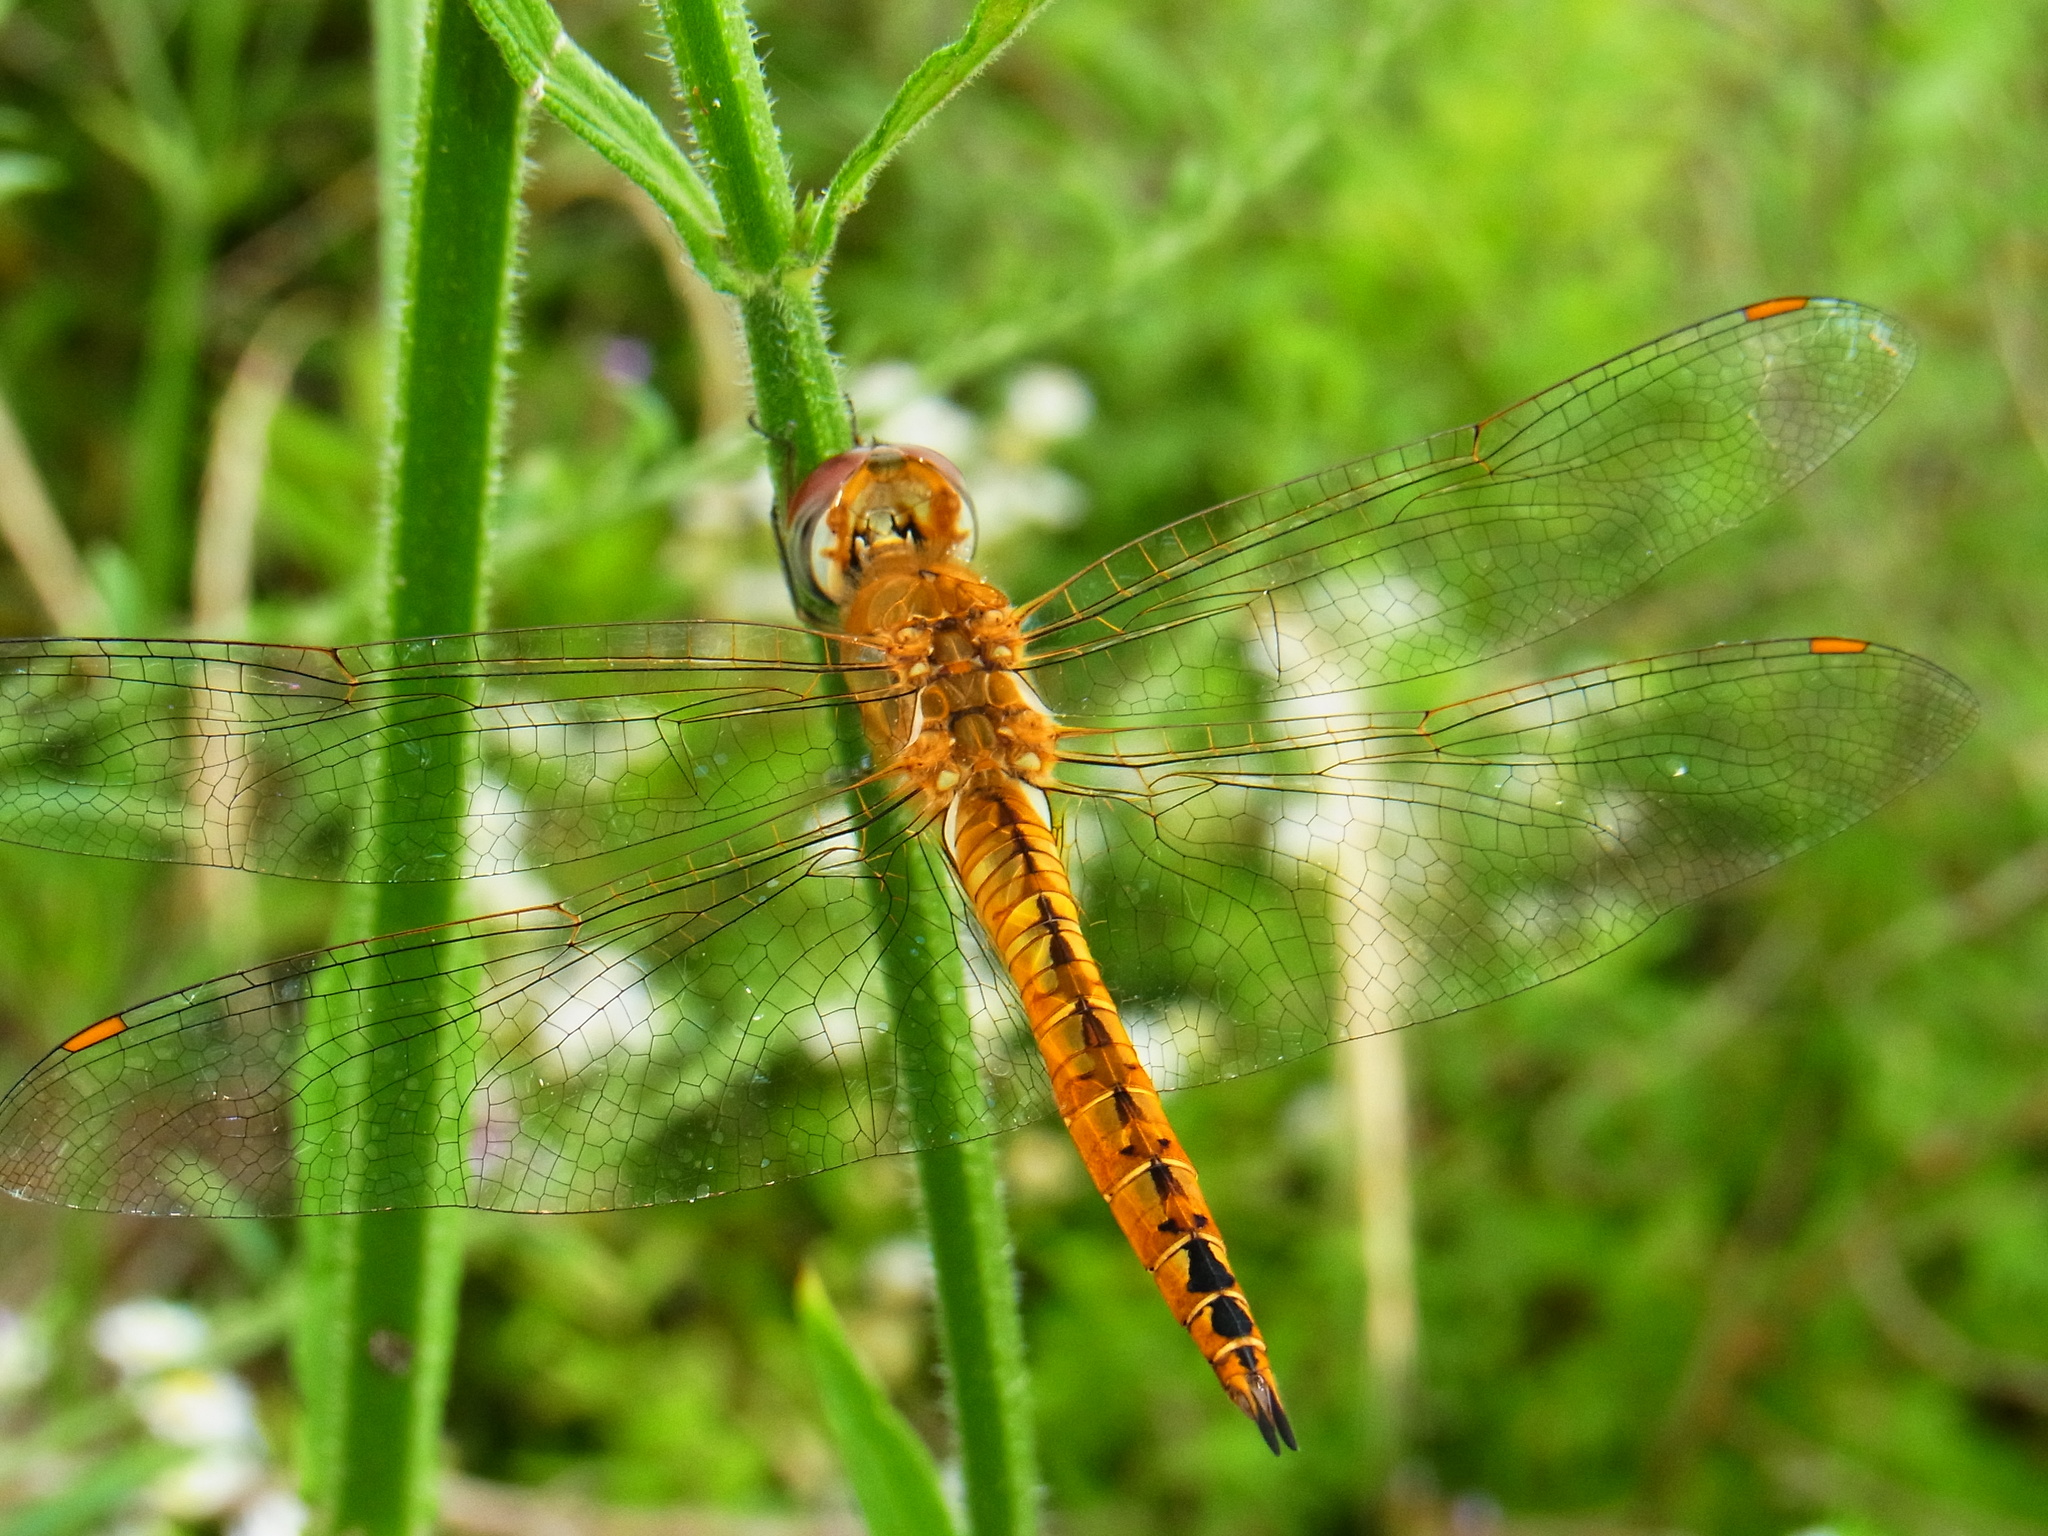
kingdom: Animalia
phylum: Arthropoda
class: Insecta
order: Odonata
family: Libellulidae
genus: Pantala
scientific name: Pantala flavescens
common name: Wandering glider
